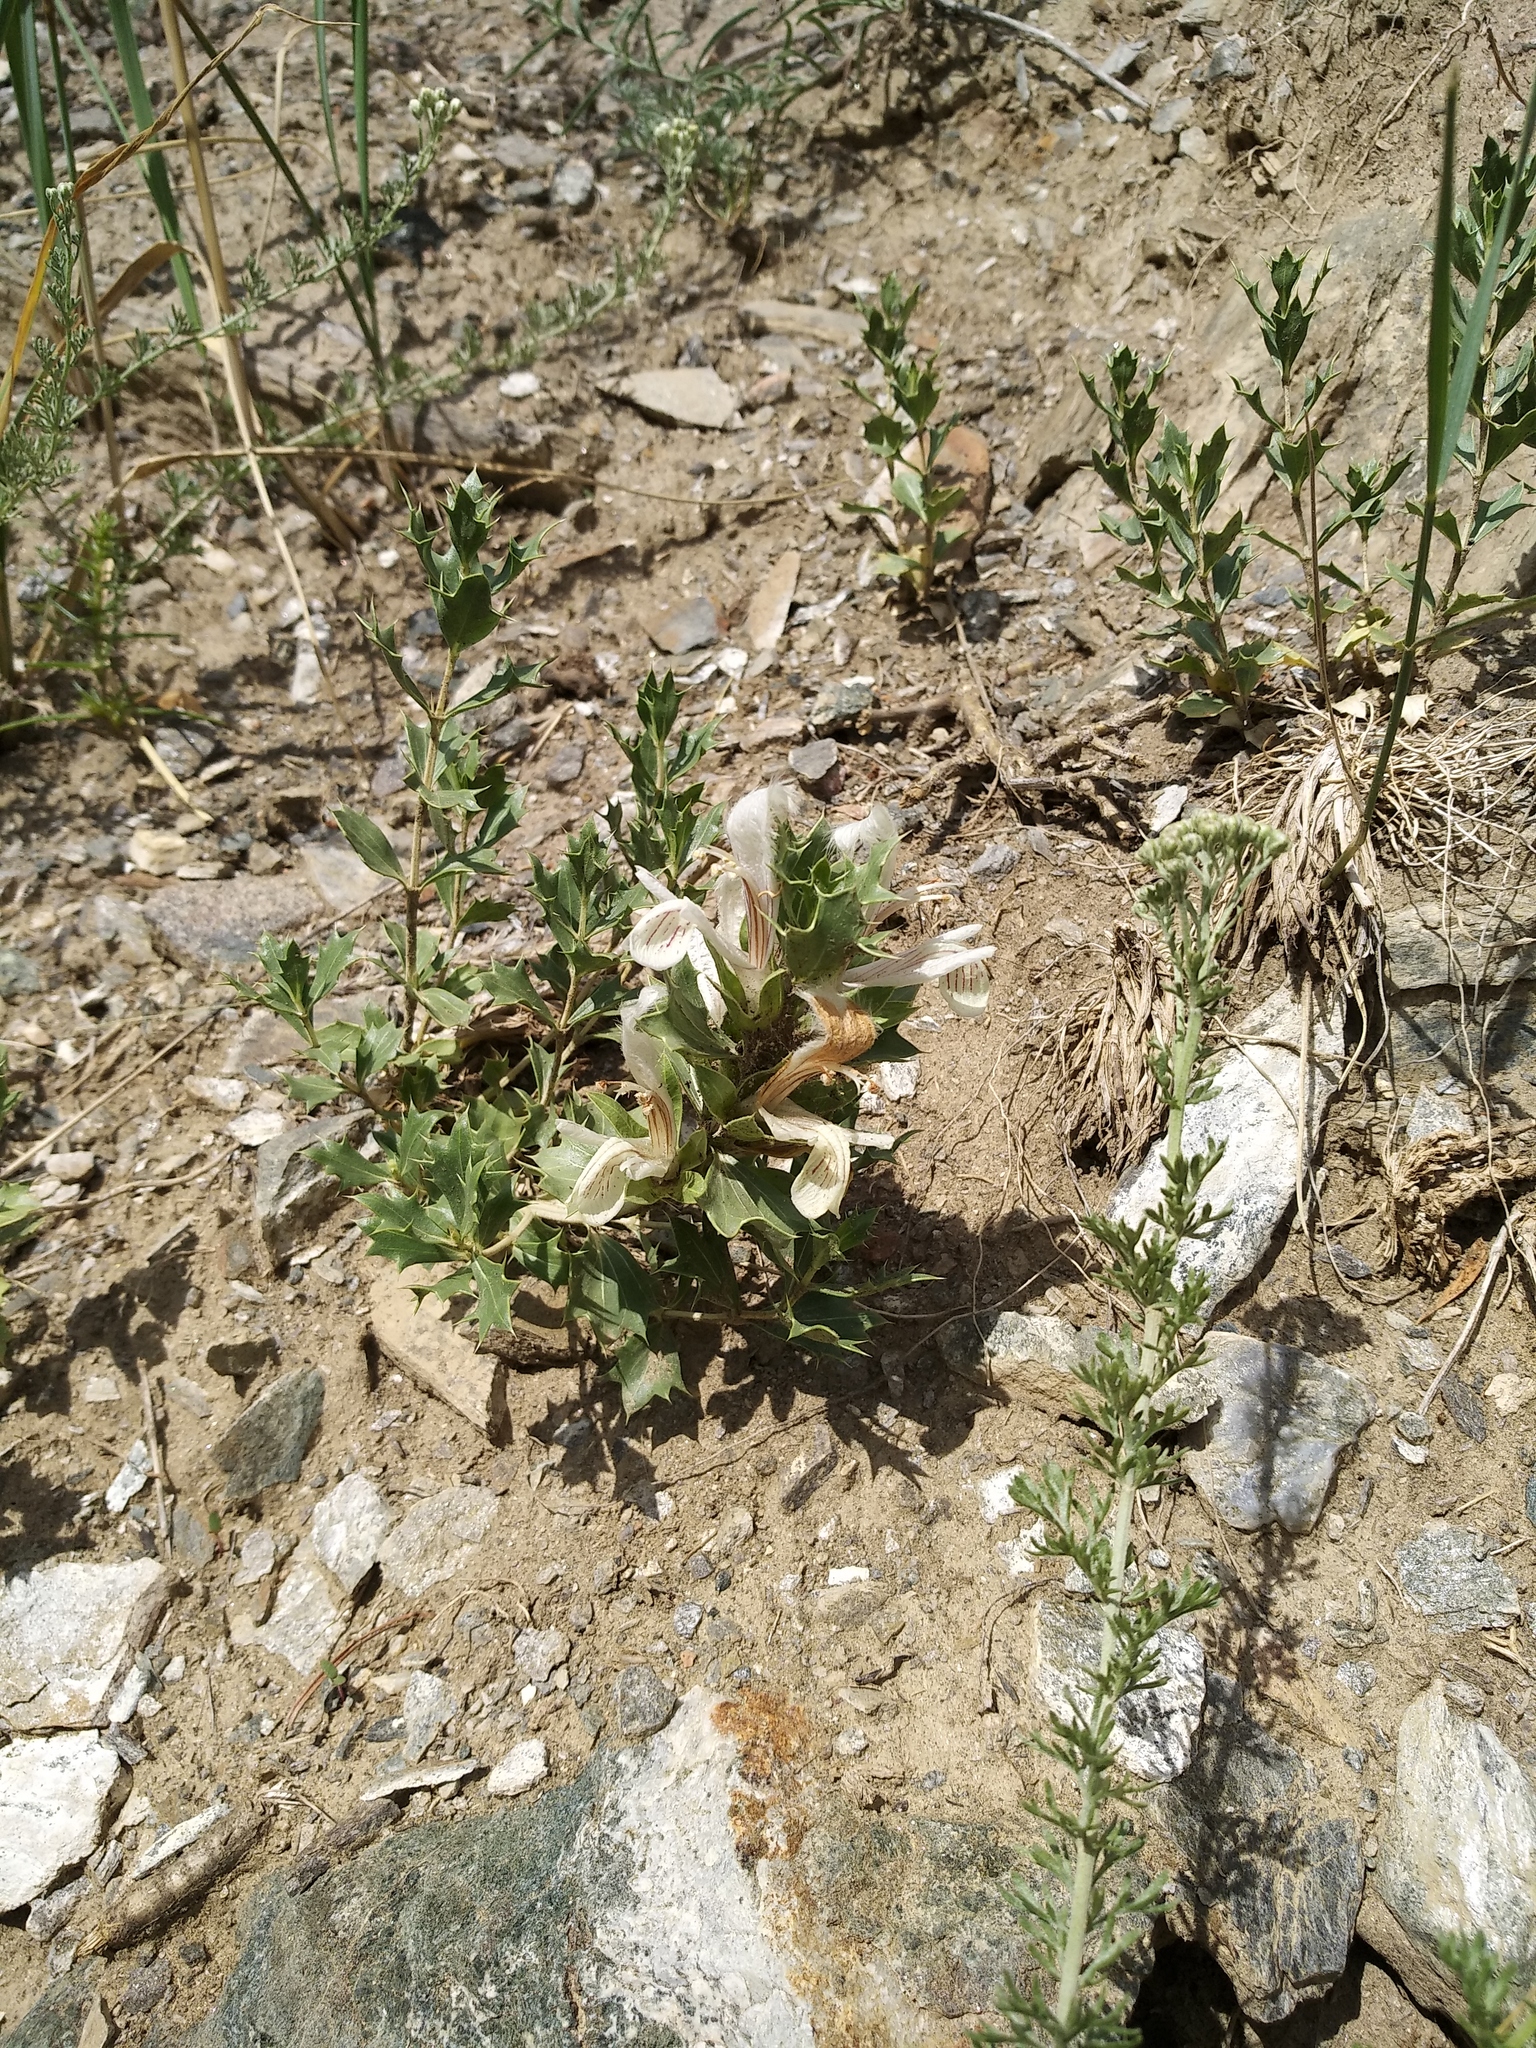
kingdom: Plantae
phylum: Tracheophyta
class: Magnoliopsida
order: Lamiales
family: Lamiaceae
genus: Lagochilus
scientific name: Lagochilus ilicifolius
